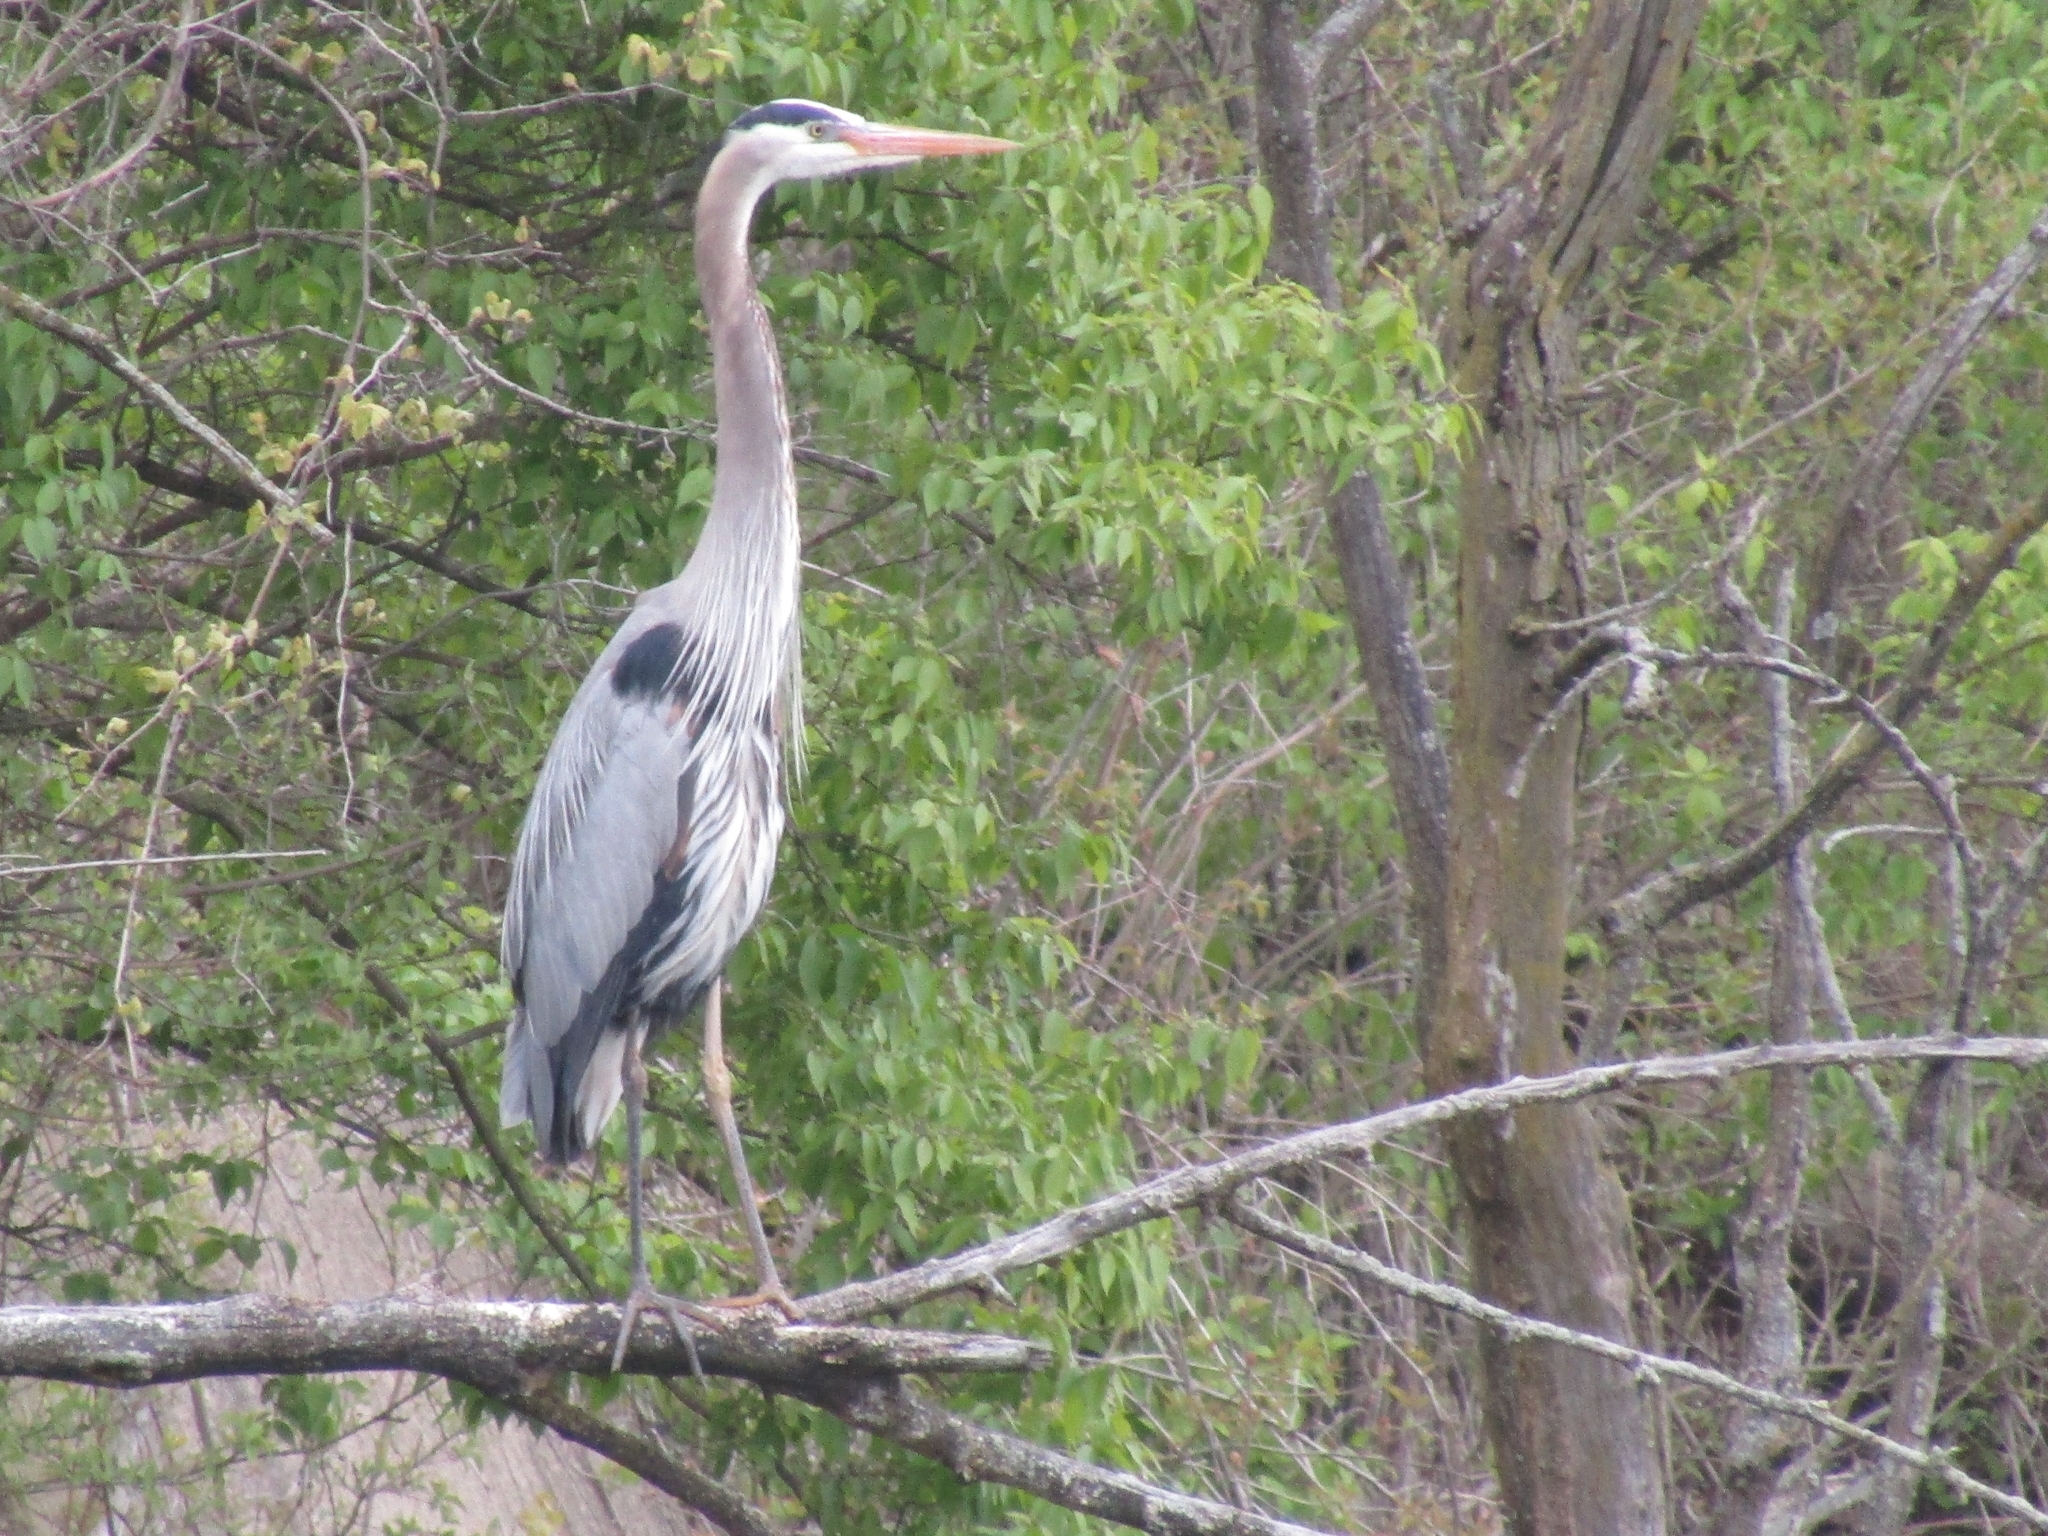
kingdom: Animalia
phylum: Chordata
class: Aves
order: Pelecaniformes
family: Ardeidae
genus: Ardea
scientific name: Ardea herodias
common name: Great blue heron
